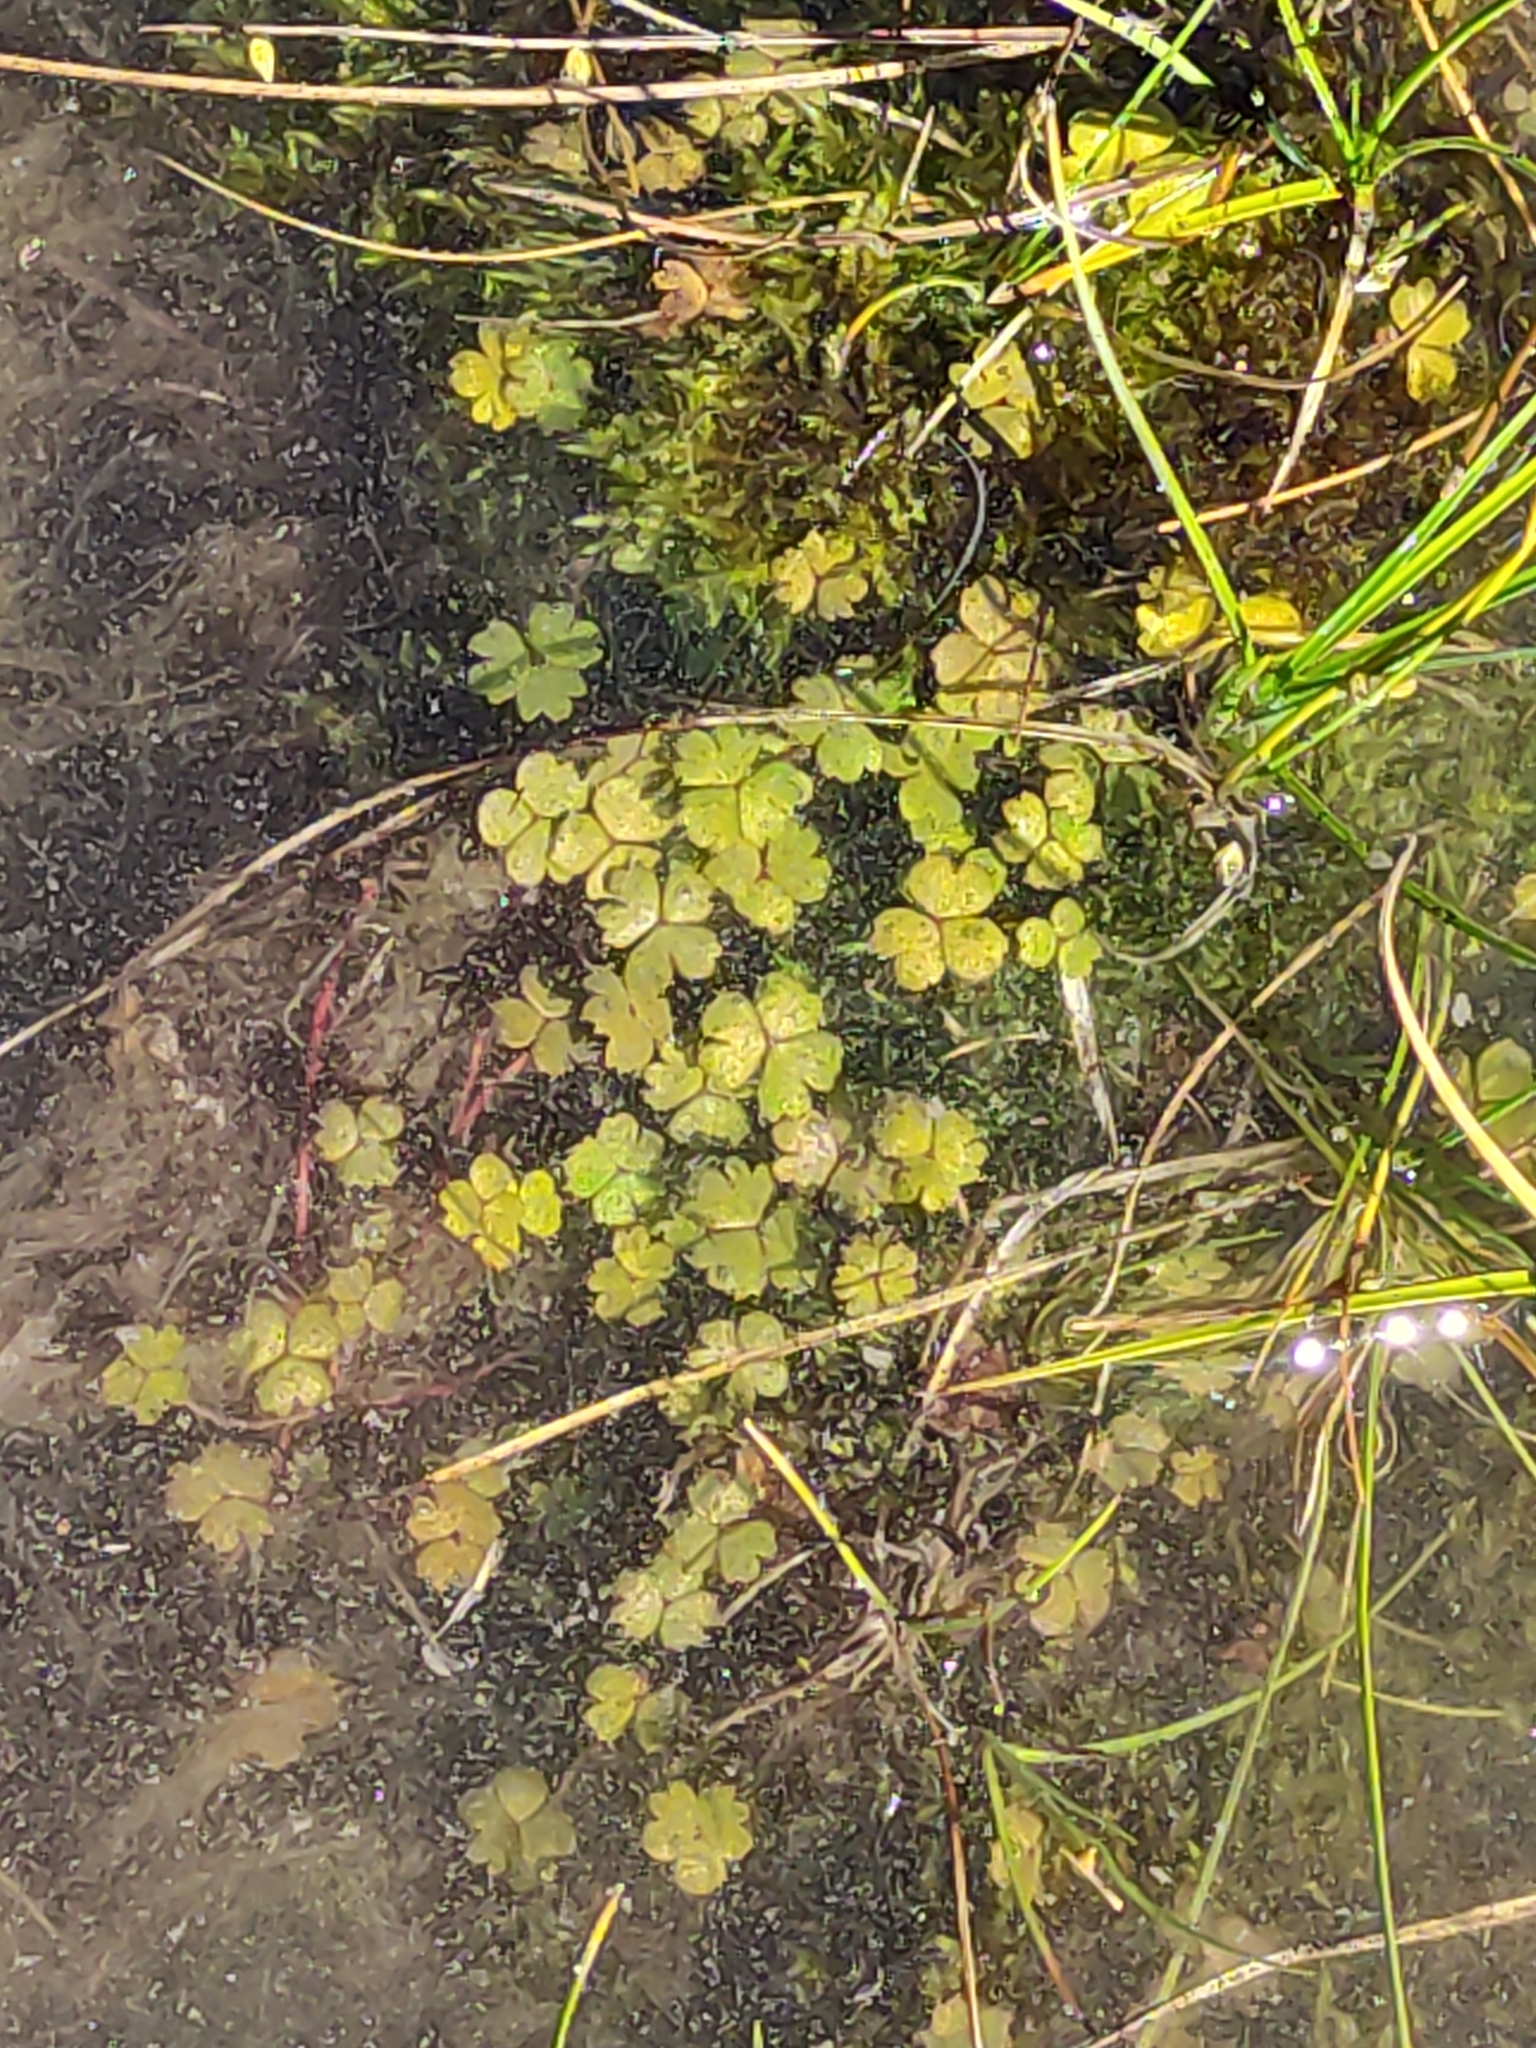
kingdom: Plantae
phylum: Tracheophyta
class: Magnoliopsida
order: Apiales
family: Araliaceae
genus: Hydrocotyle
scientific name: Hydrocotyle sulcata
